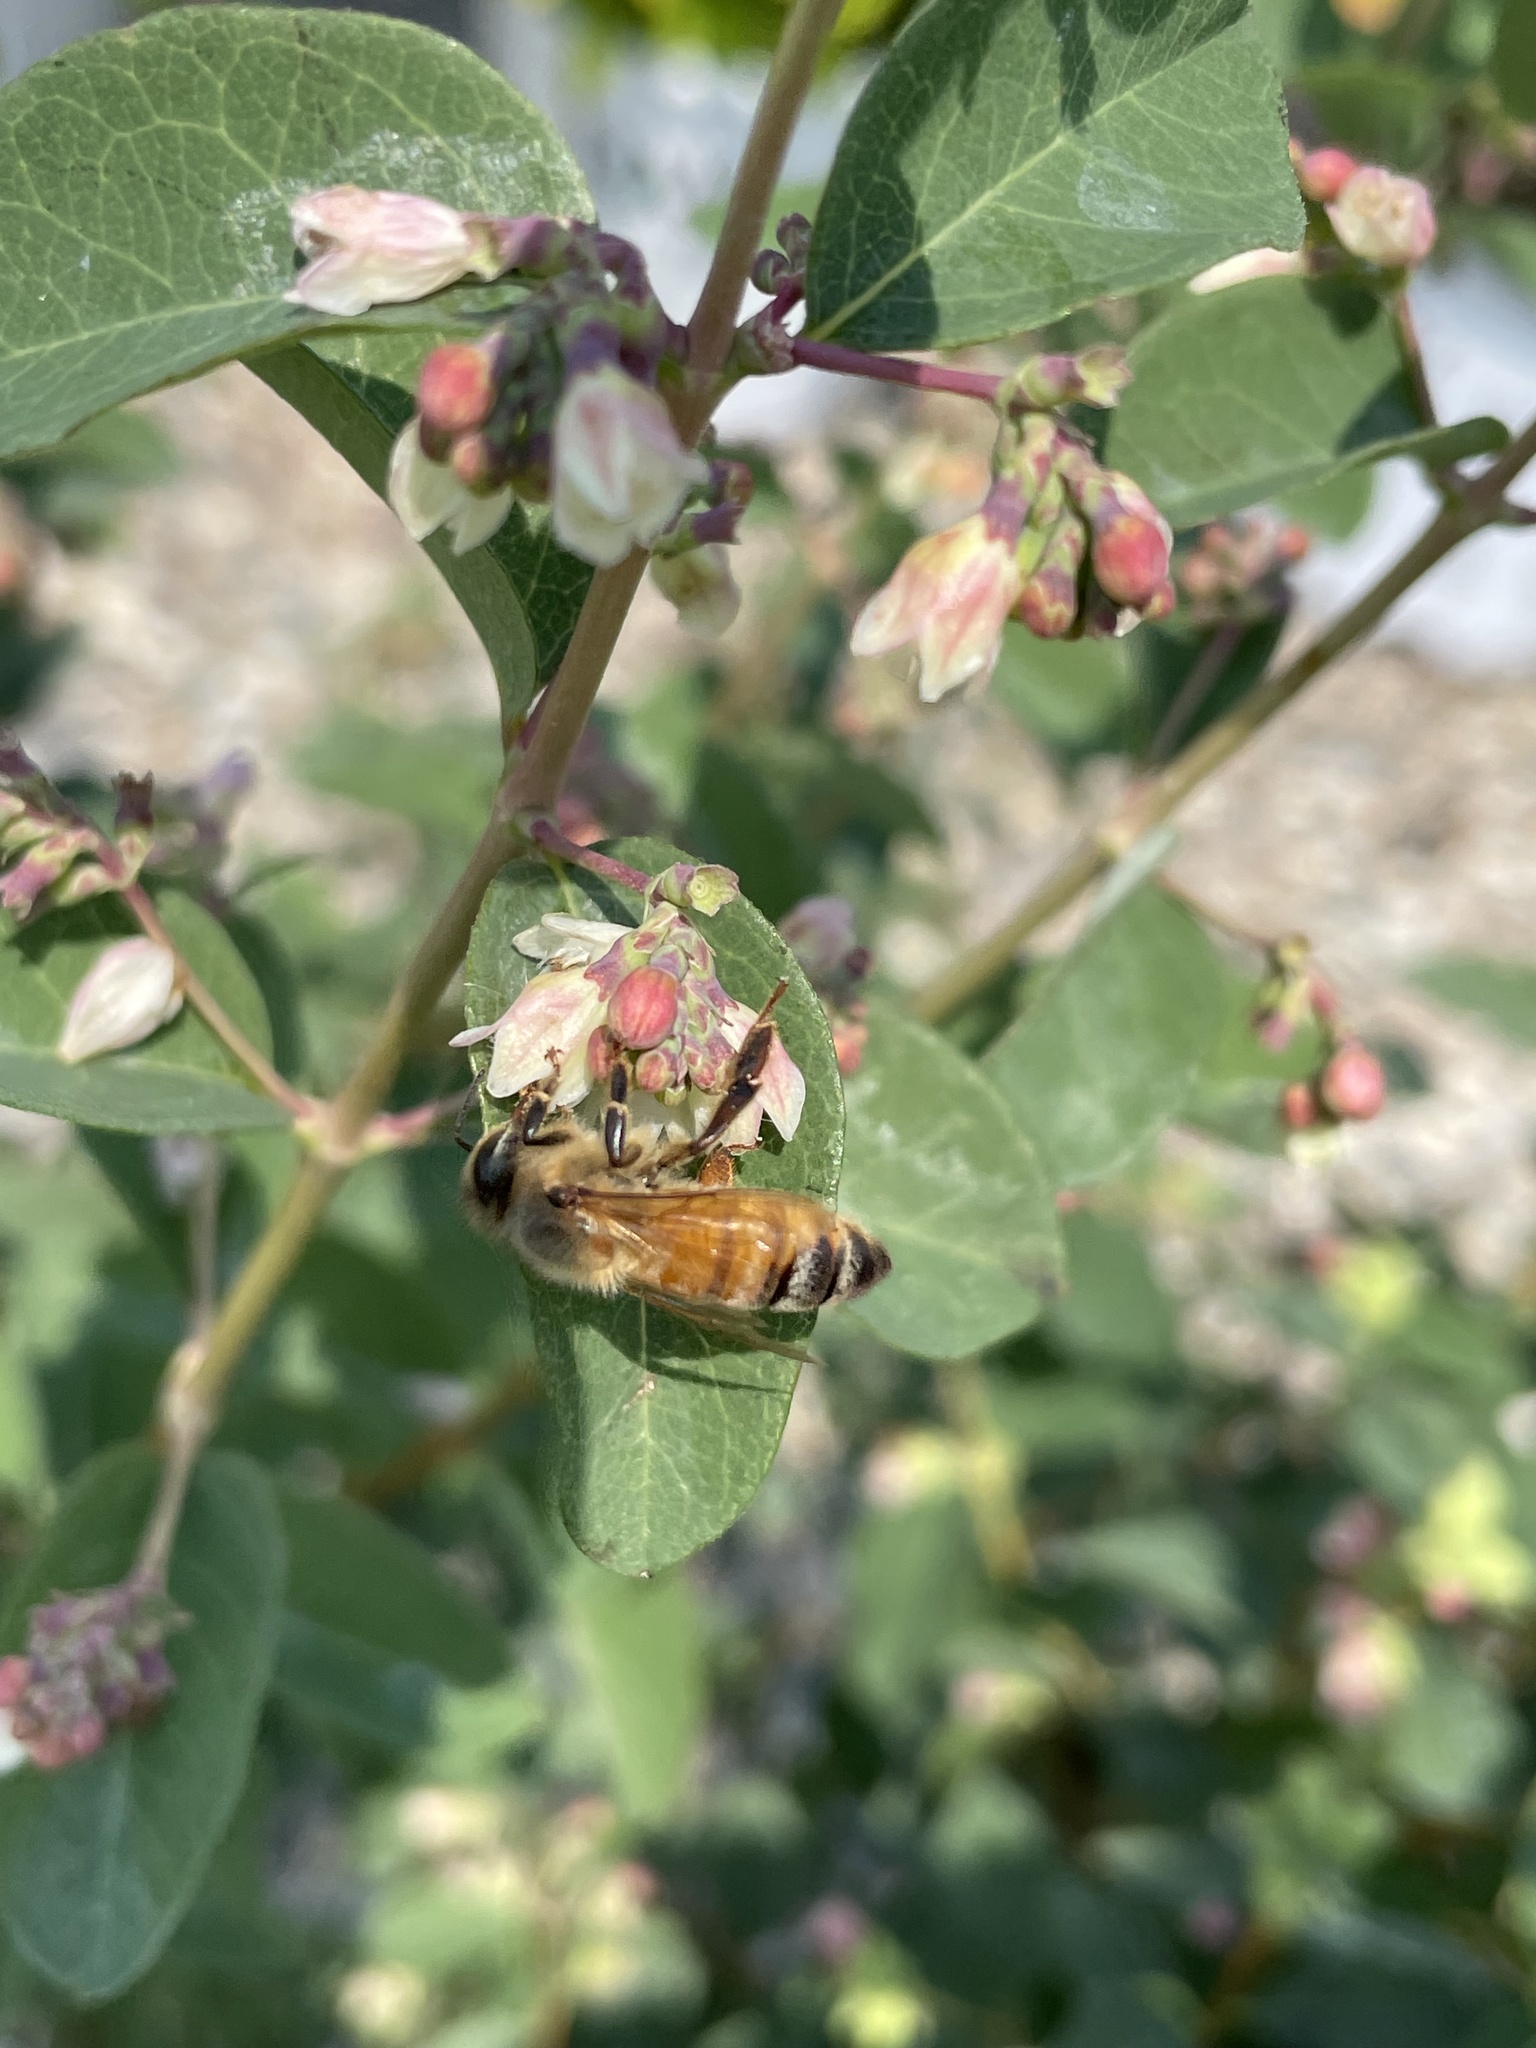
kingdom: Animalia
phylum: Arthropoda
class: Insecta
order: Hymenoptera
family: Apidae
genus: Apis
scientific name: Apis mellifera
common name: Honey bee
